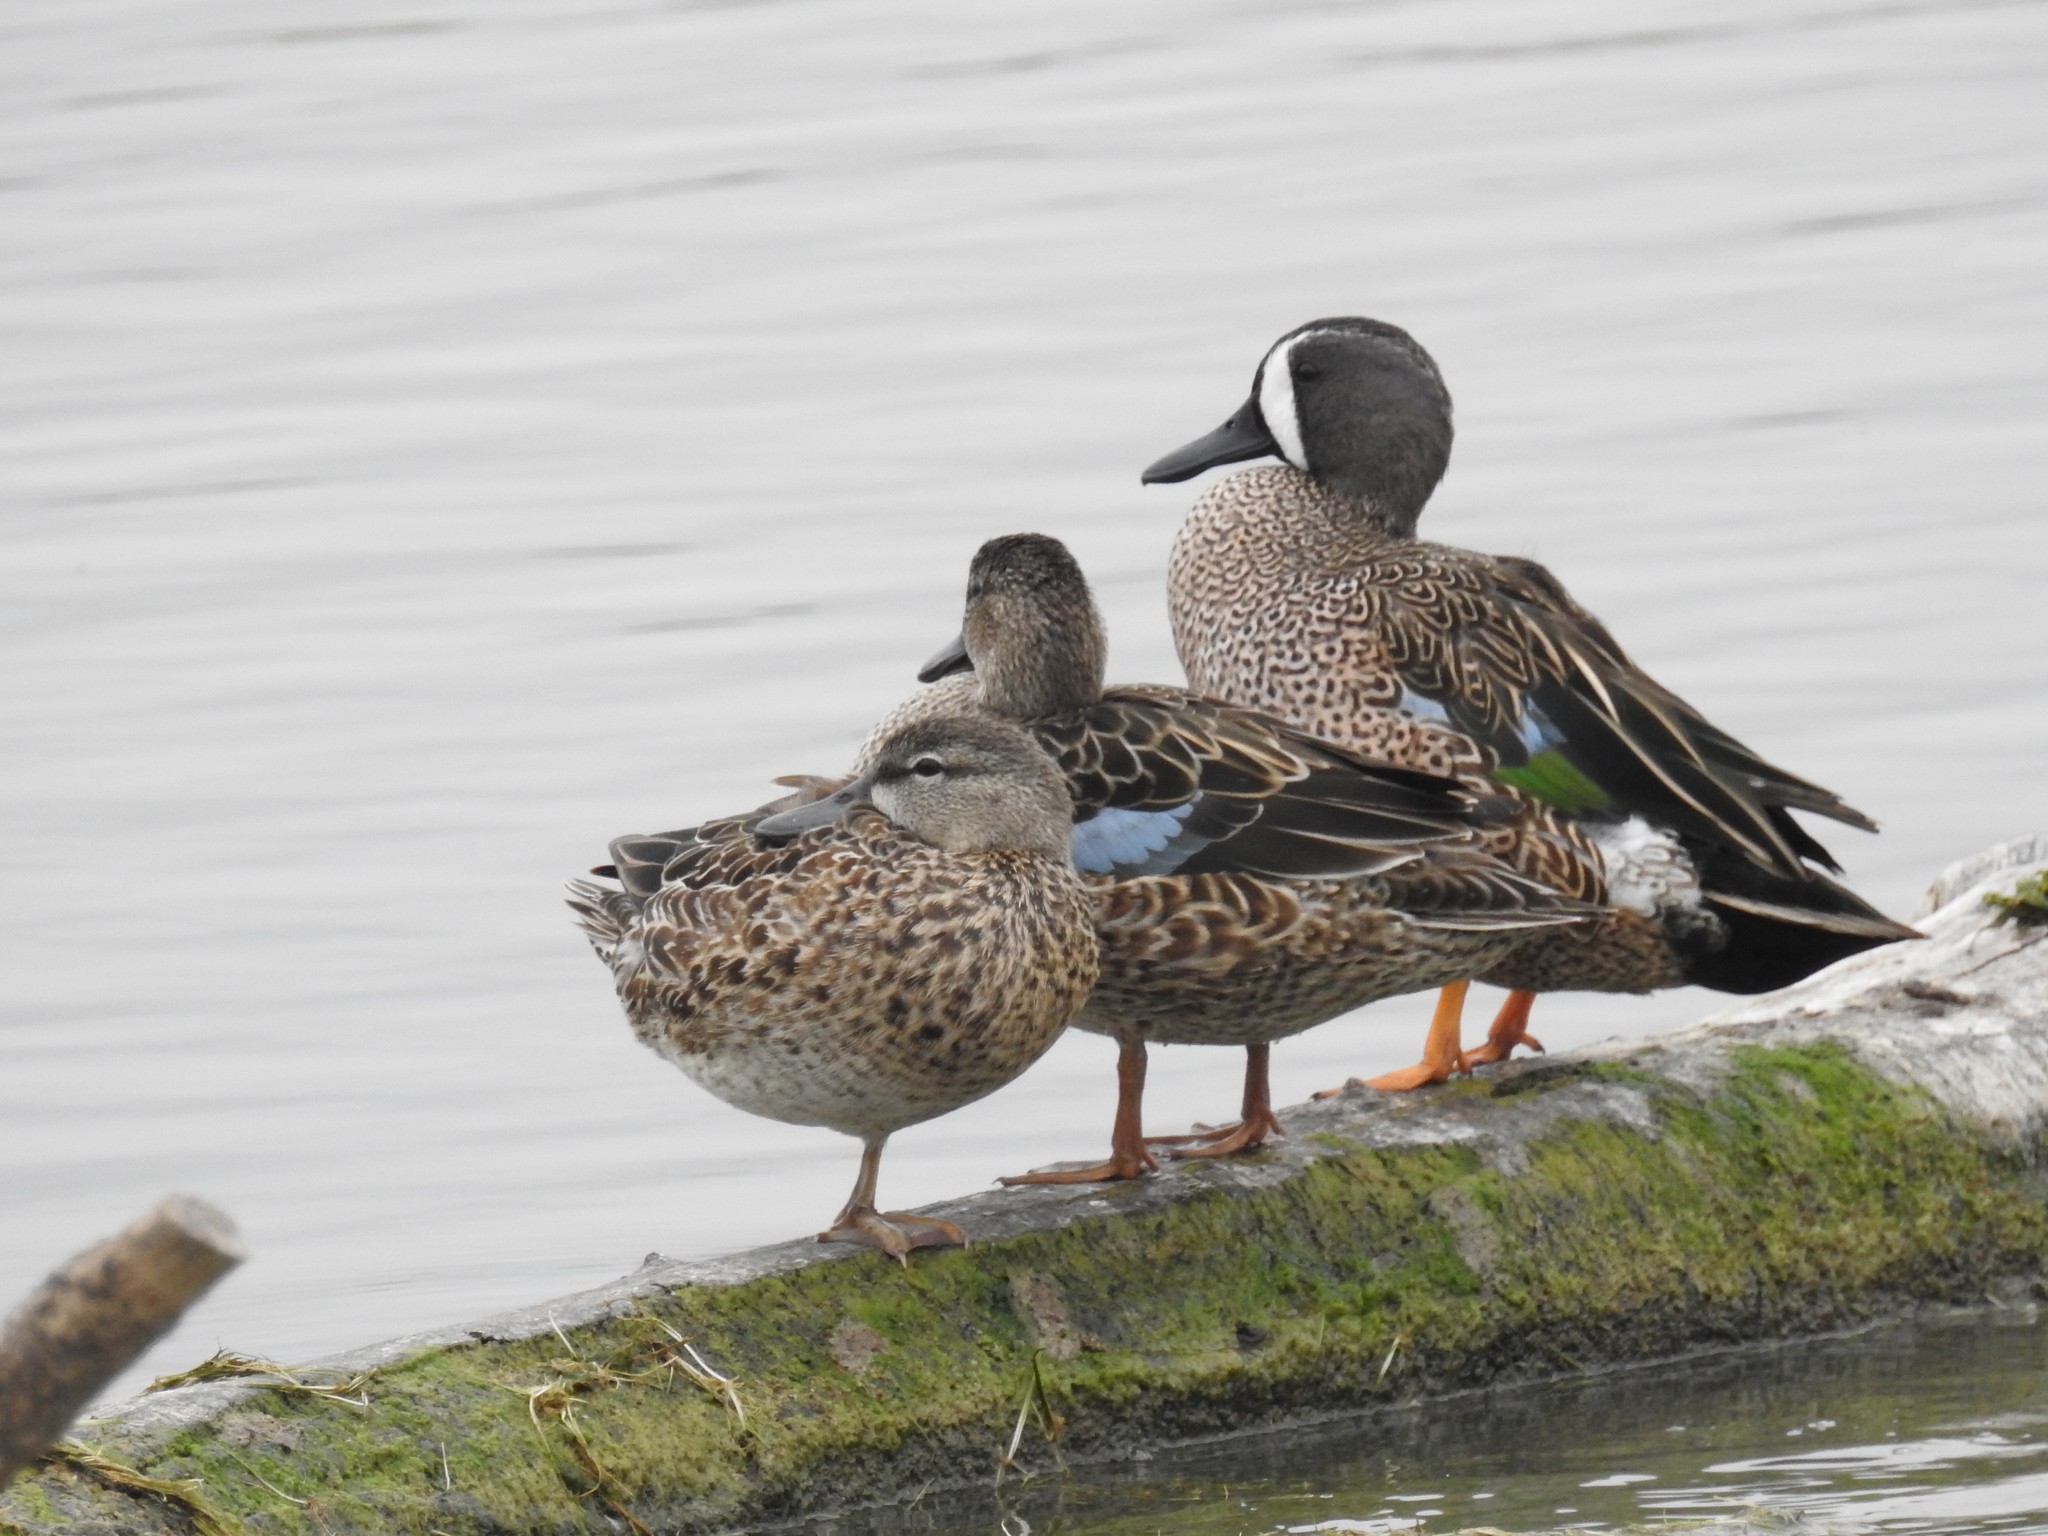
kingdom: Animalia
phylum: Chordata
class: Aves
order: Anseriformes
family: Anatidae
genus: Spatula
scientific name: Spatula discors
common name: Blue-winged teal
